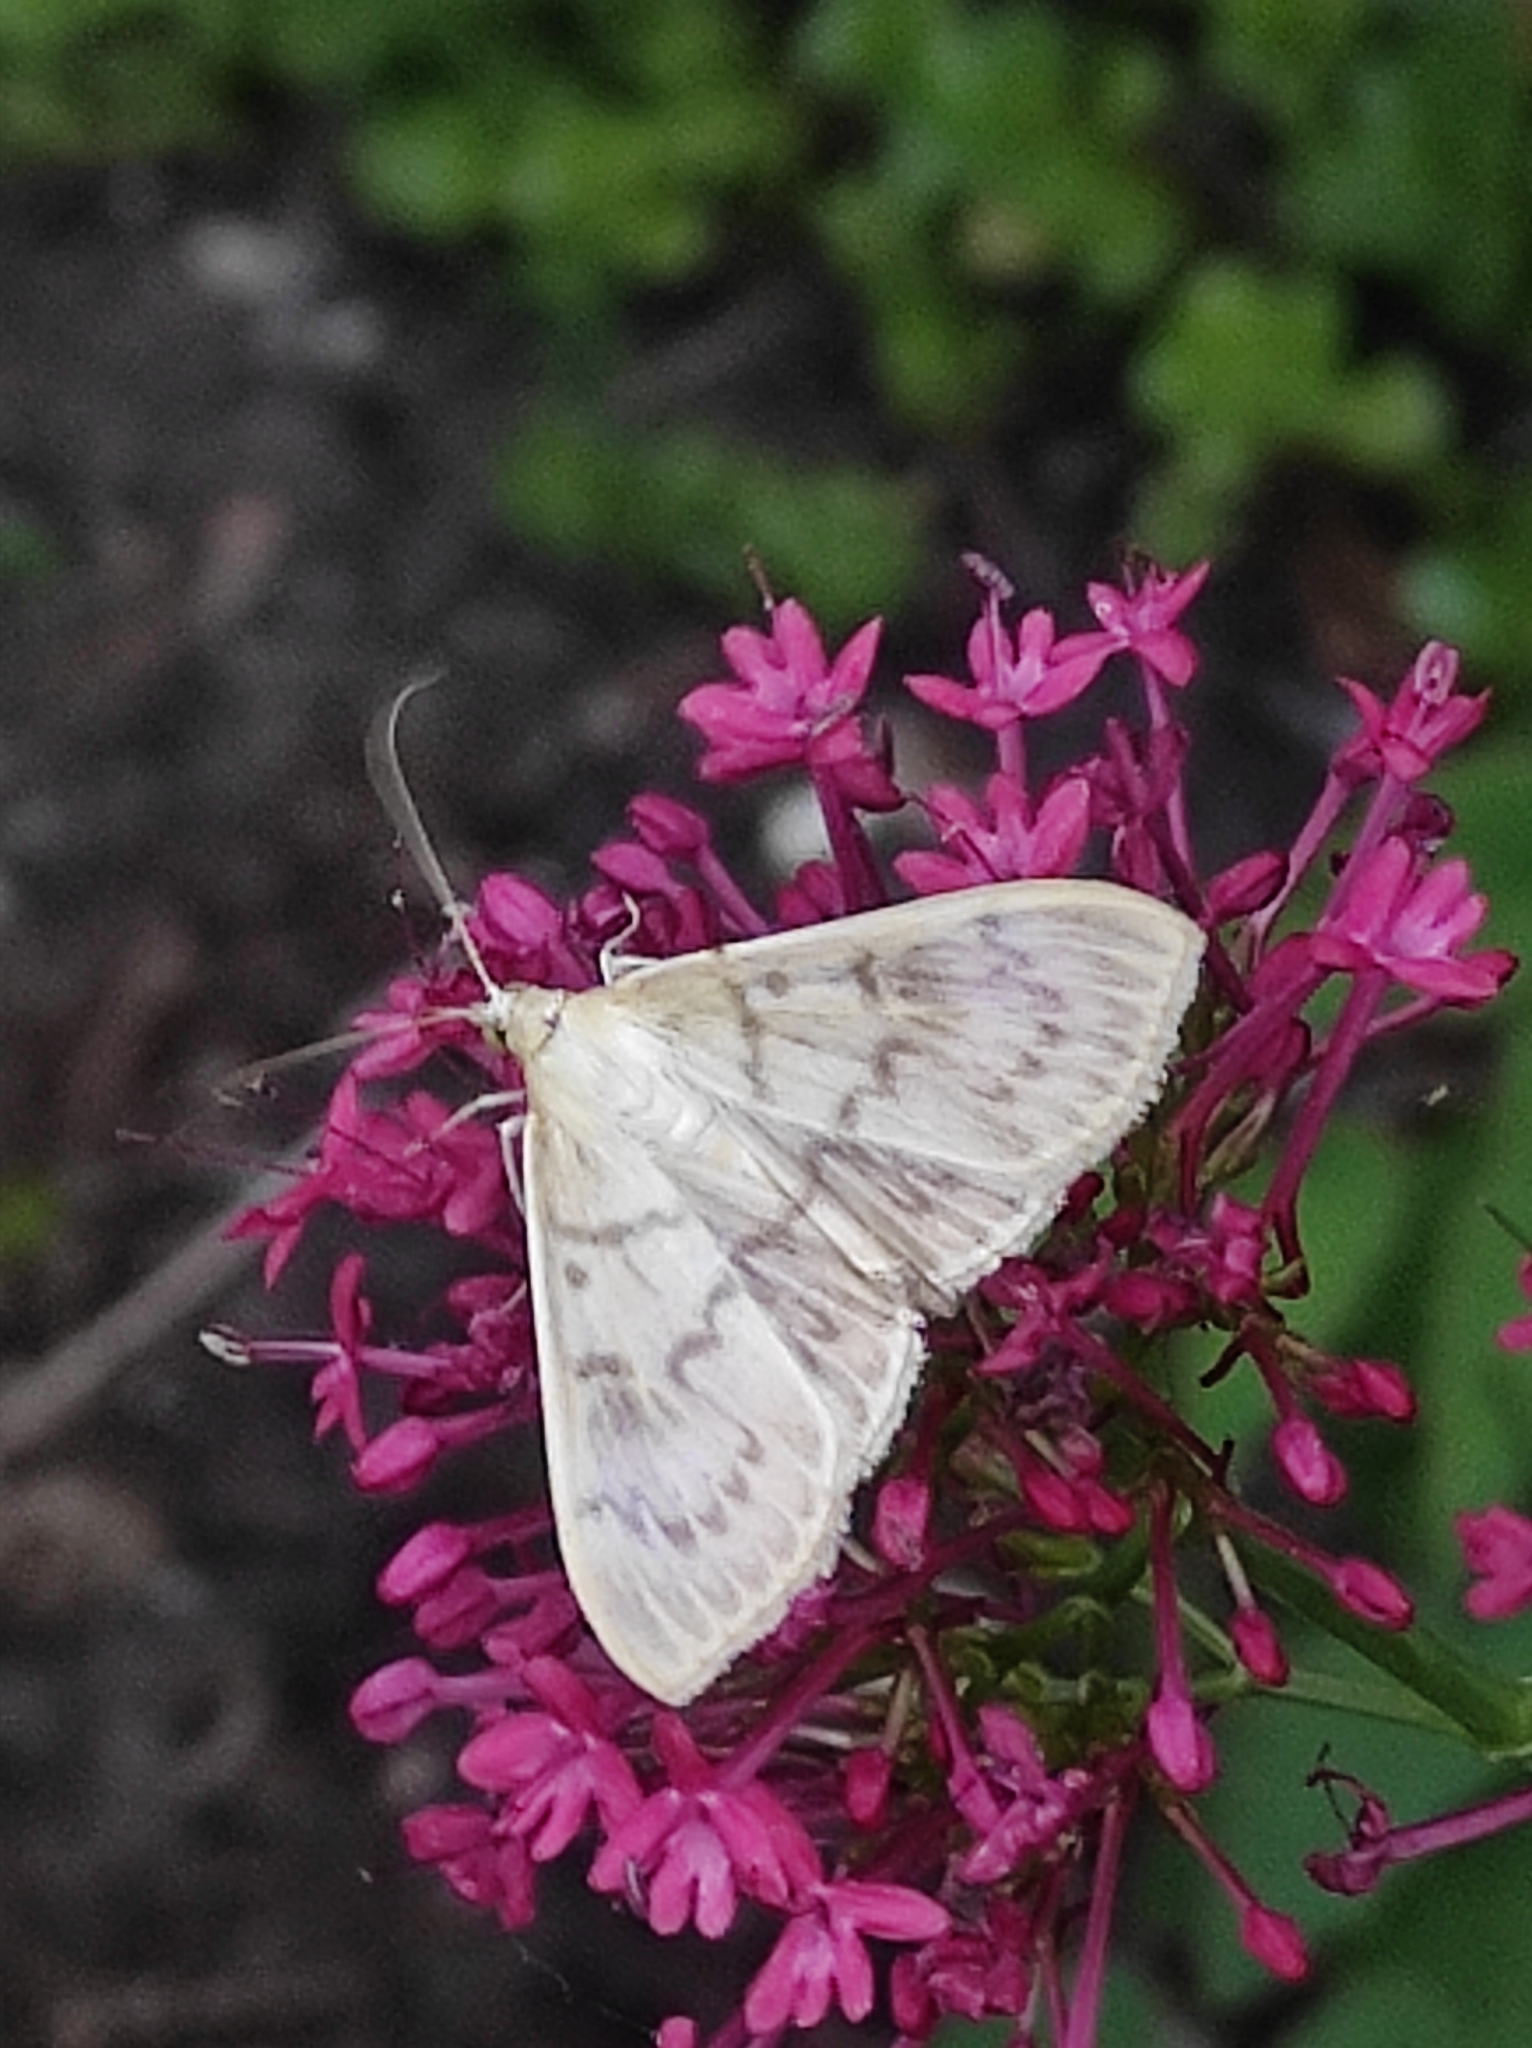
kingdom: Animalia
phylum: Arthropoda
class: Insecta
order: Lepidoptera
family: Crambidae
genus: Patania
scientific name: Patania ruralis
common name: Mother of pearl
